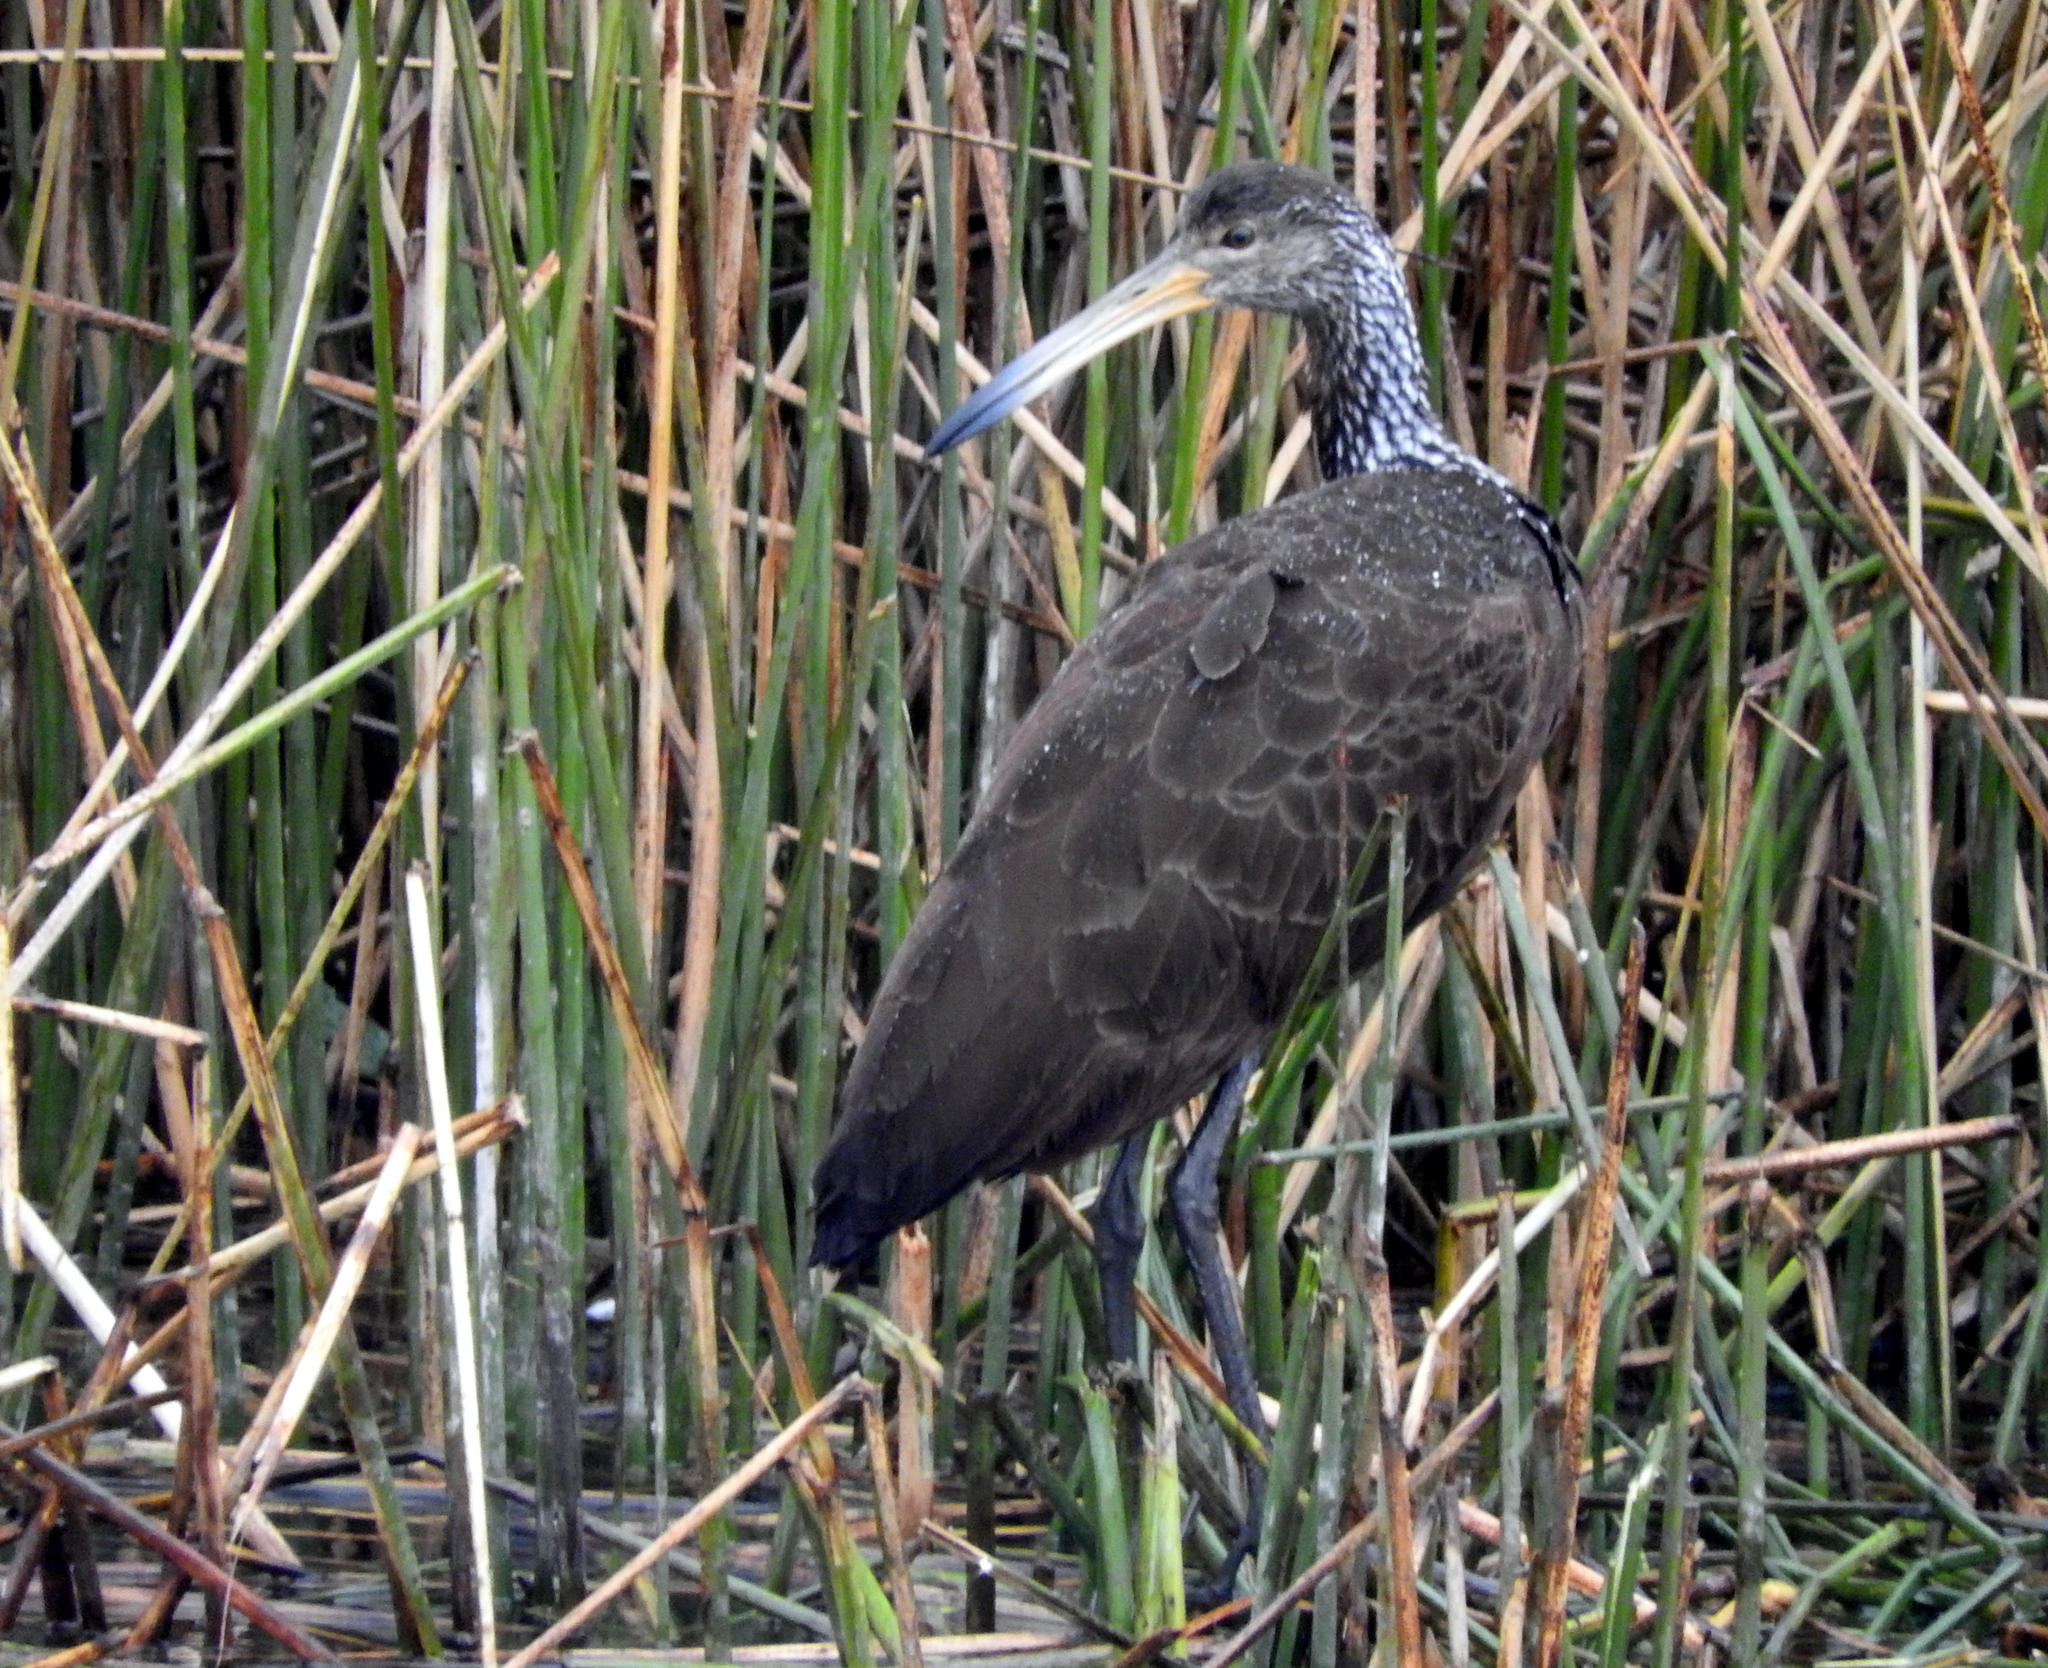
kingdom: Animalia
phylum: Chordata
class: Aves
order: Gruiformes
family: Aramidae
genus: Aramus
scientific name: Aramus guarauna
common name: Limpkin
